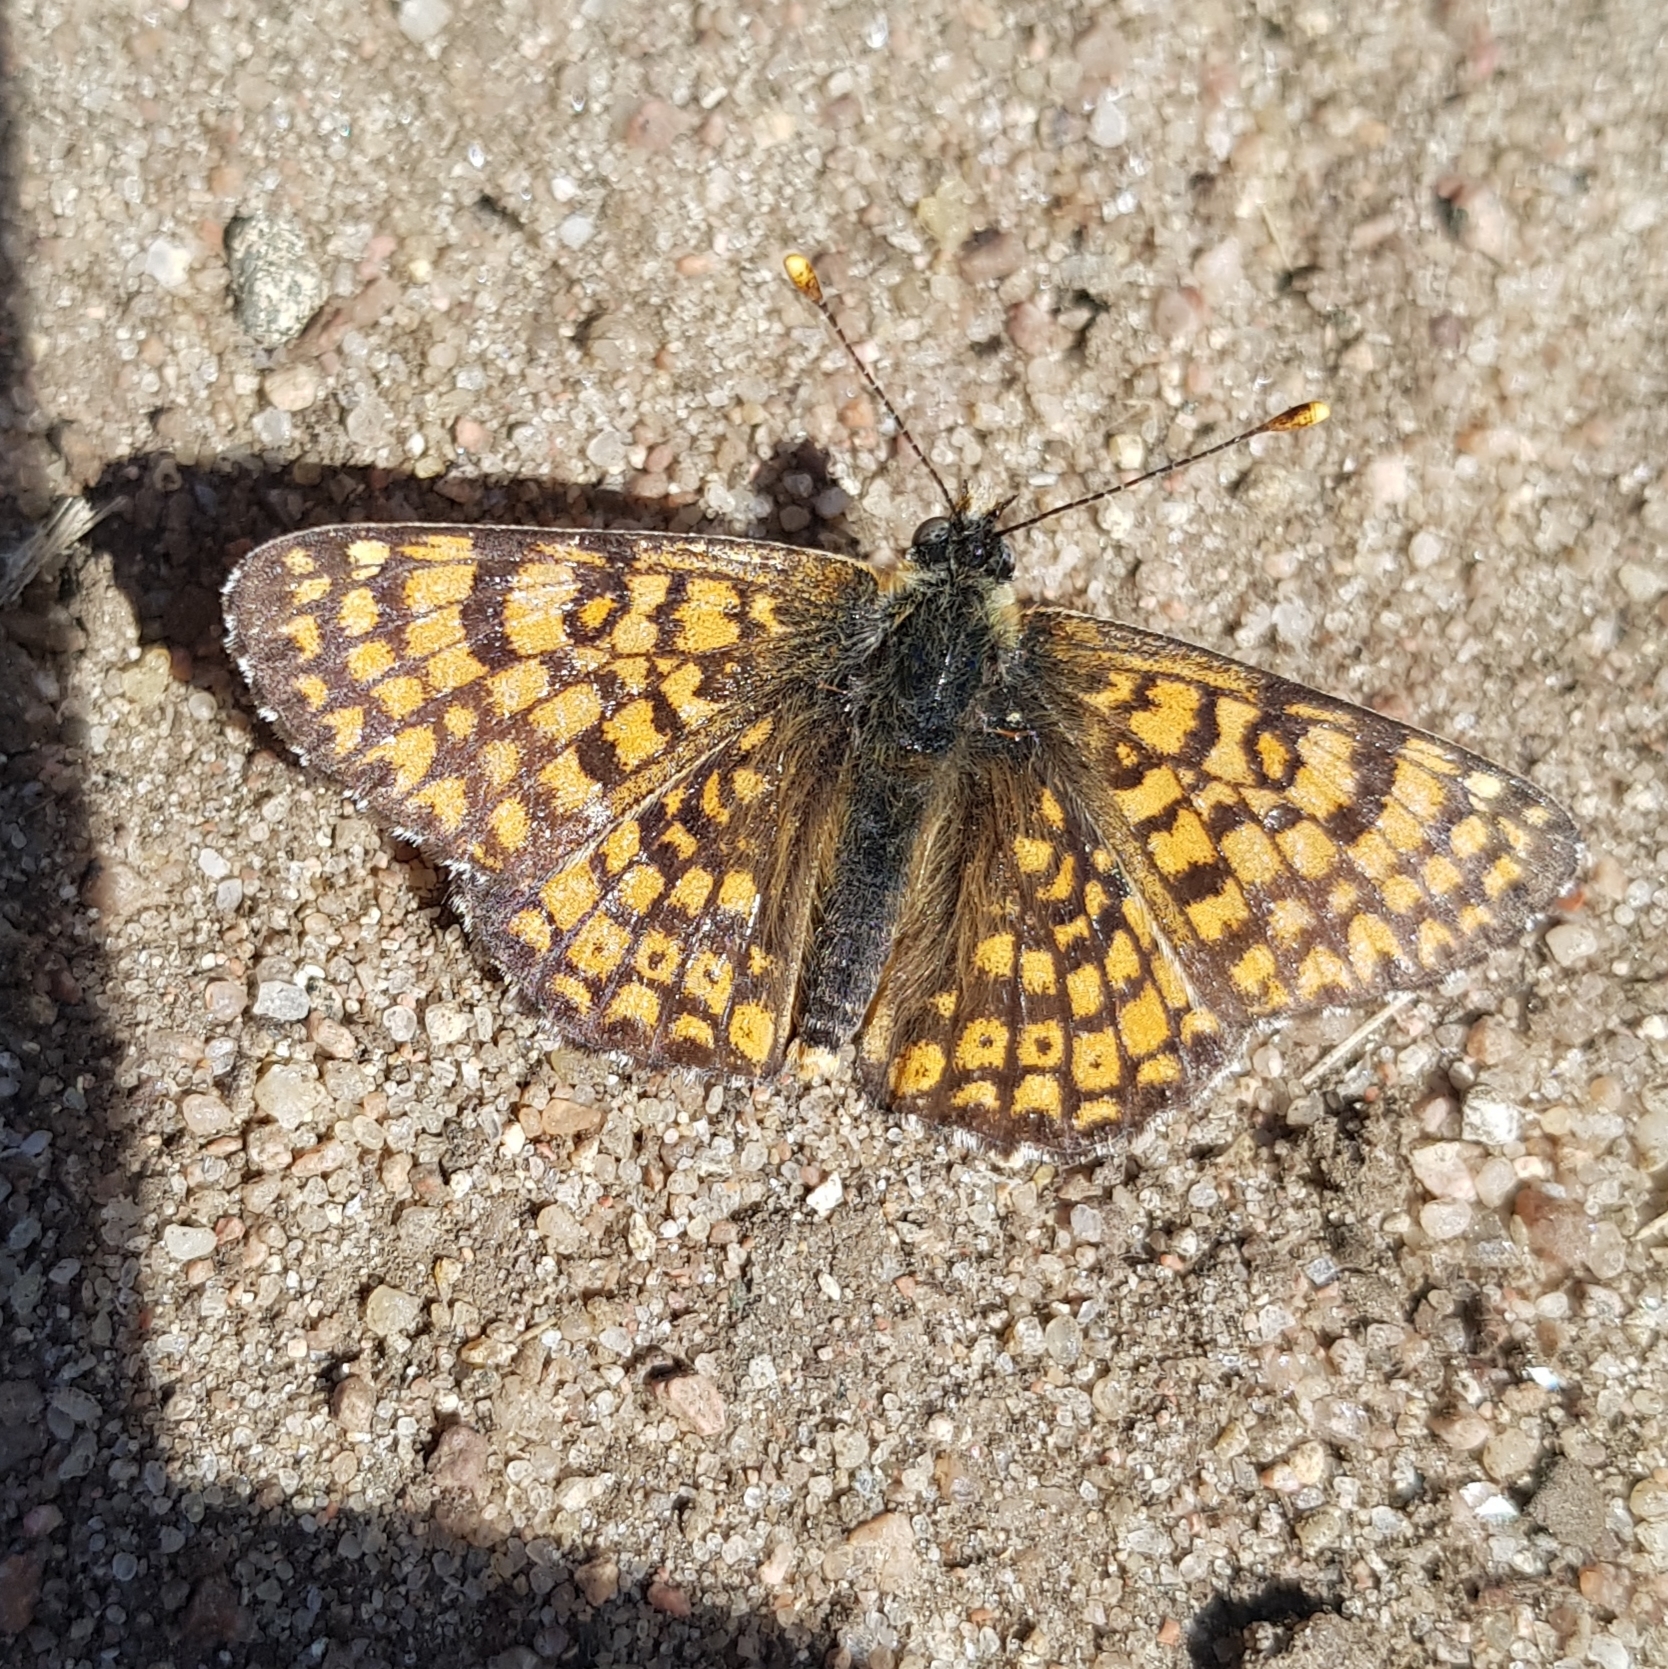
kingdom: Animalia
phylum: Arthropoda
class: Insecta
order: Lepidoptera
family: Nymphalidae
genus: Melitaea
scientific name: Melitaea cinxia
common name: Glanville fritillary
